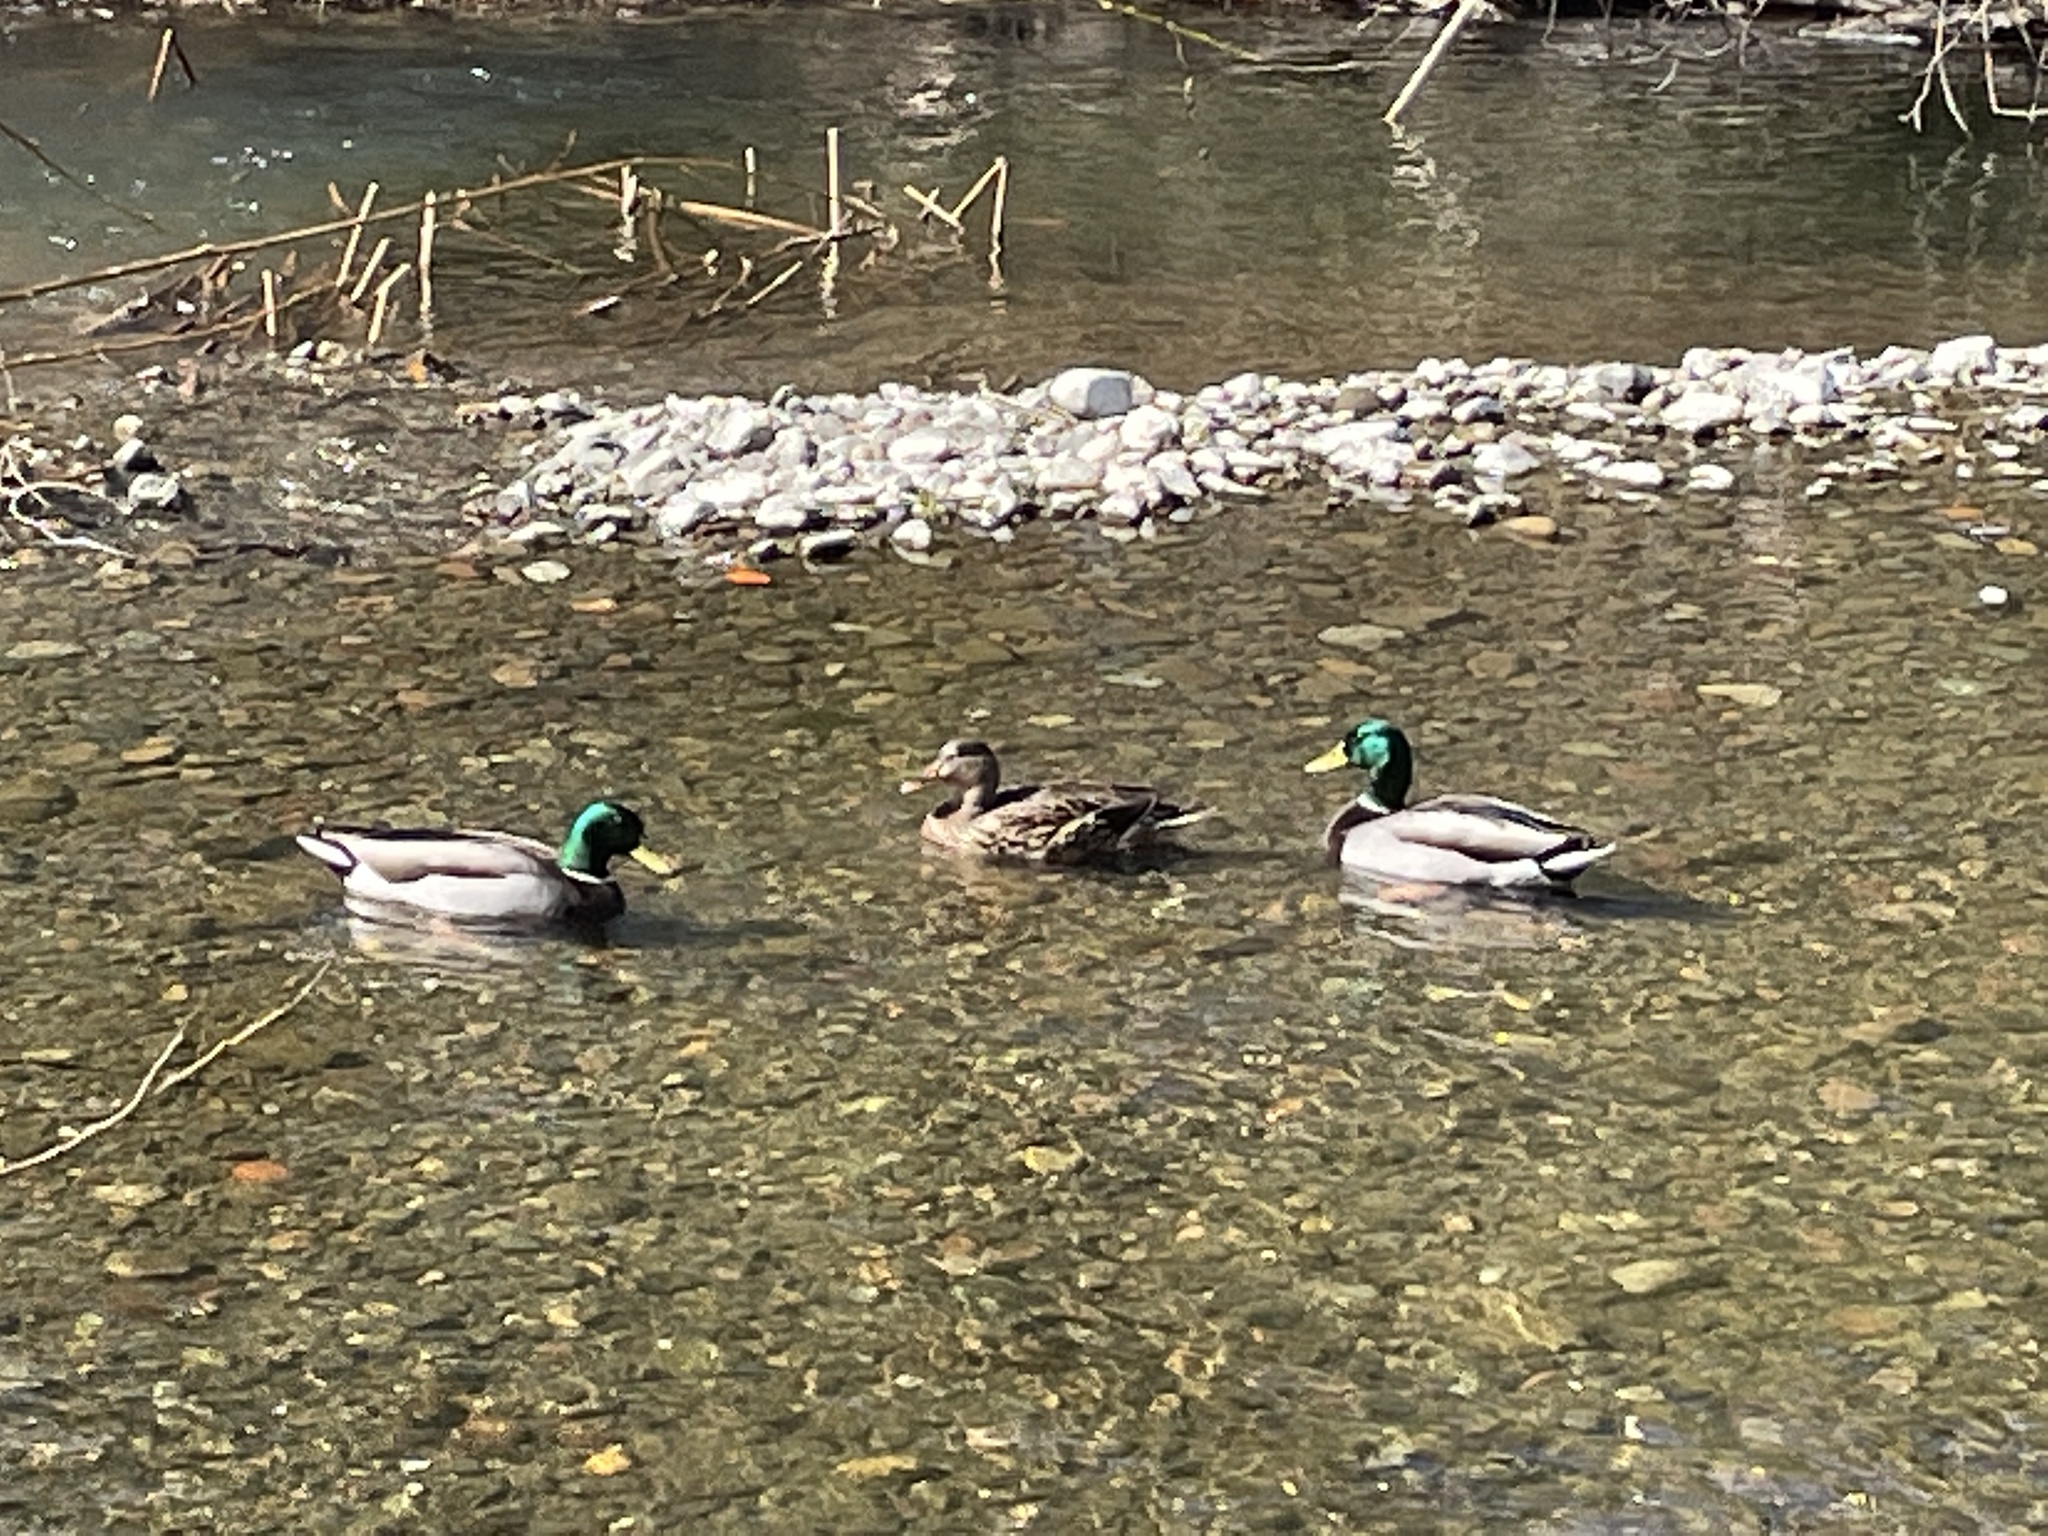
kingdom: Animalia
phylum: Chordata
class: Aves
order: Anseriformes
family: Anatidae
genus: Anas
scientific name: Anas platyrhynchos
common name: Mallard
